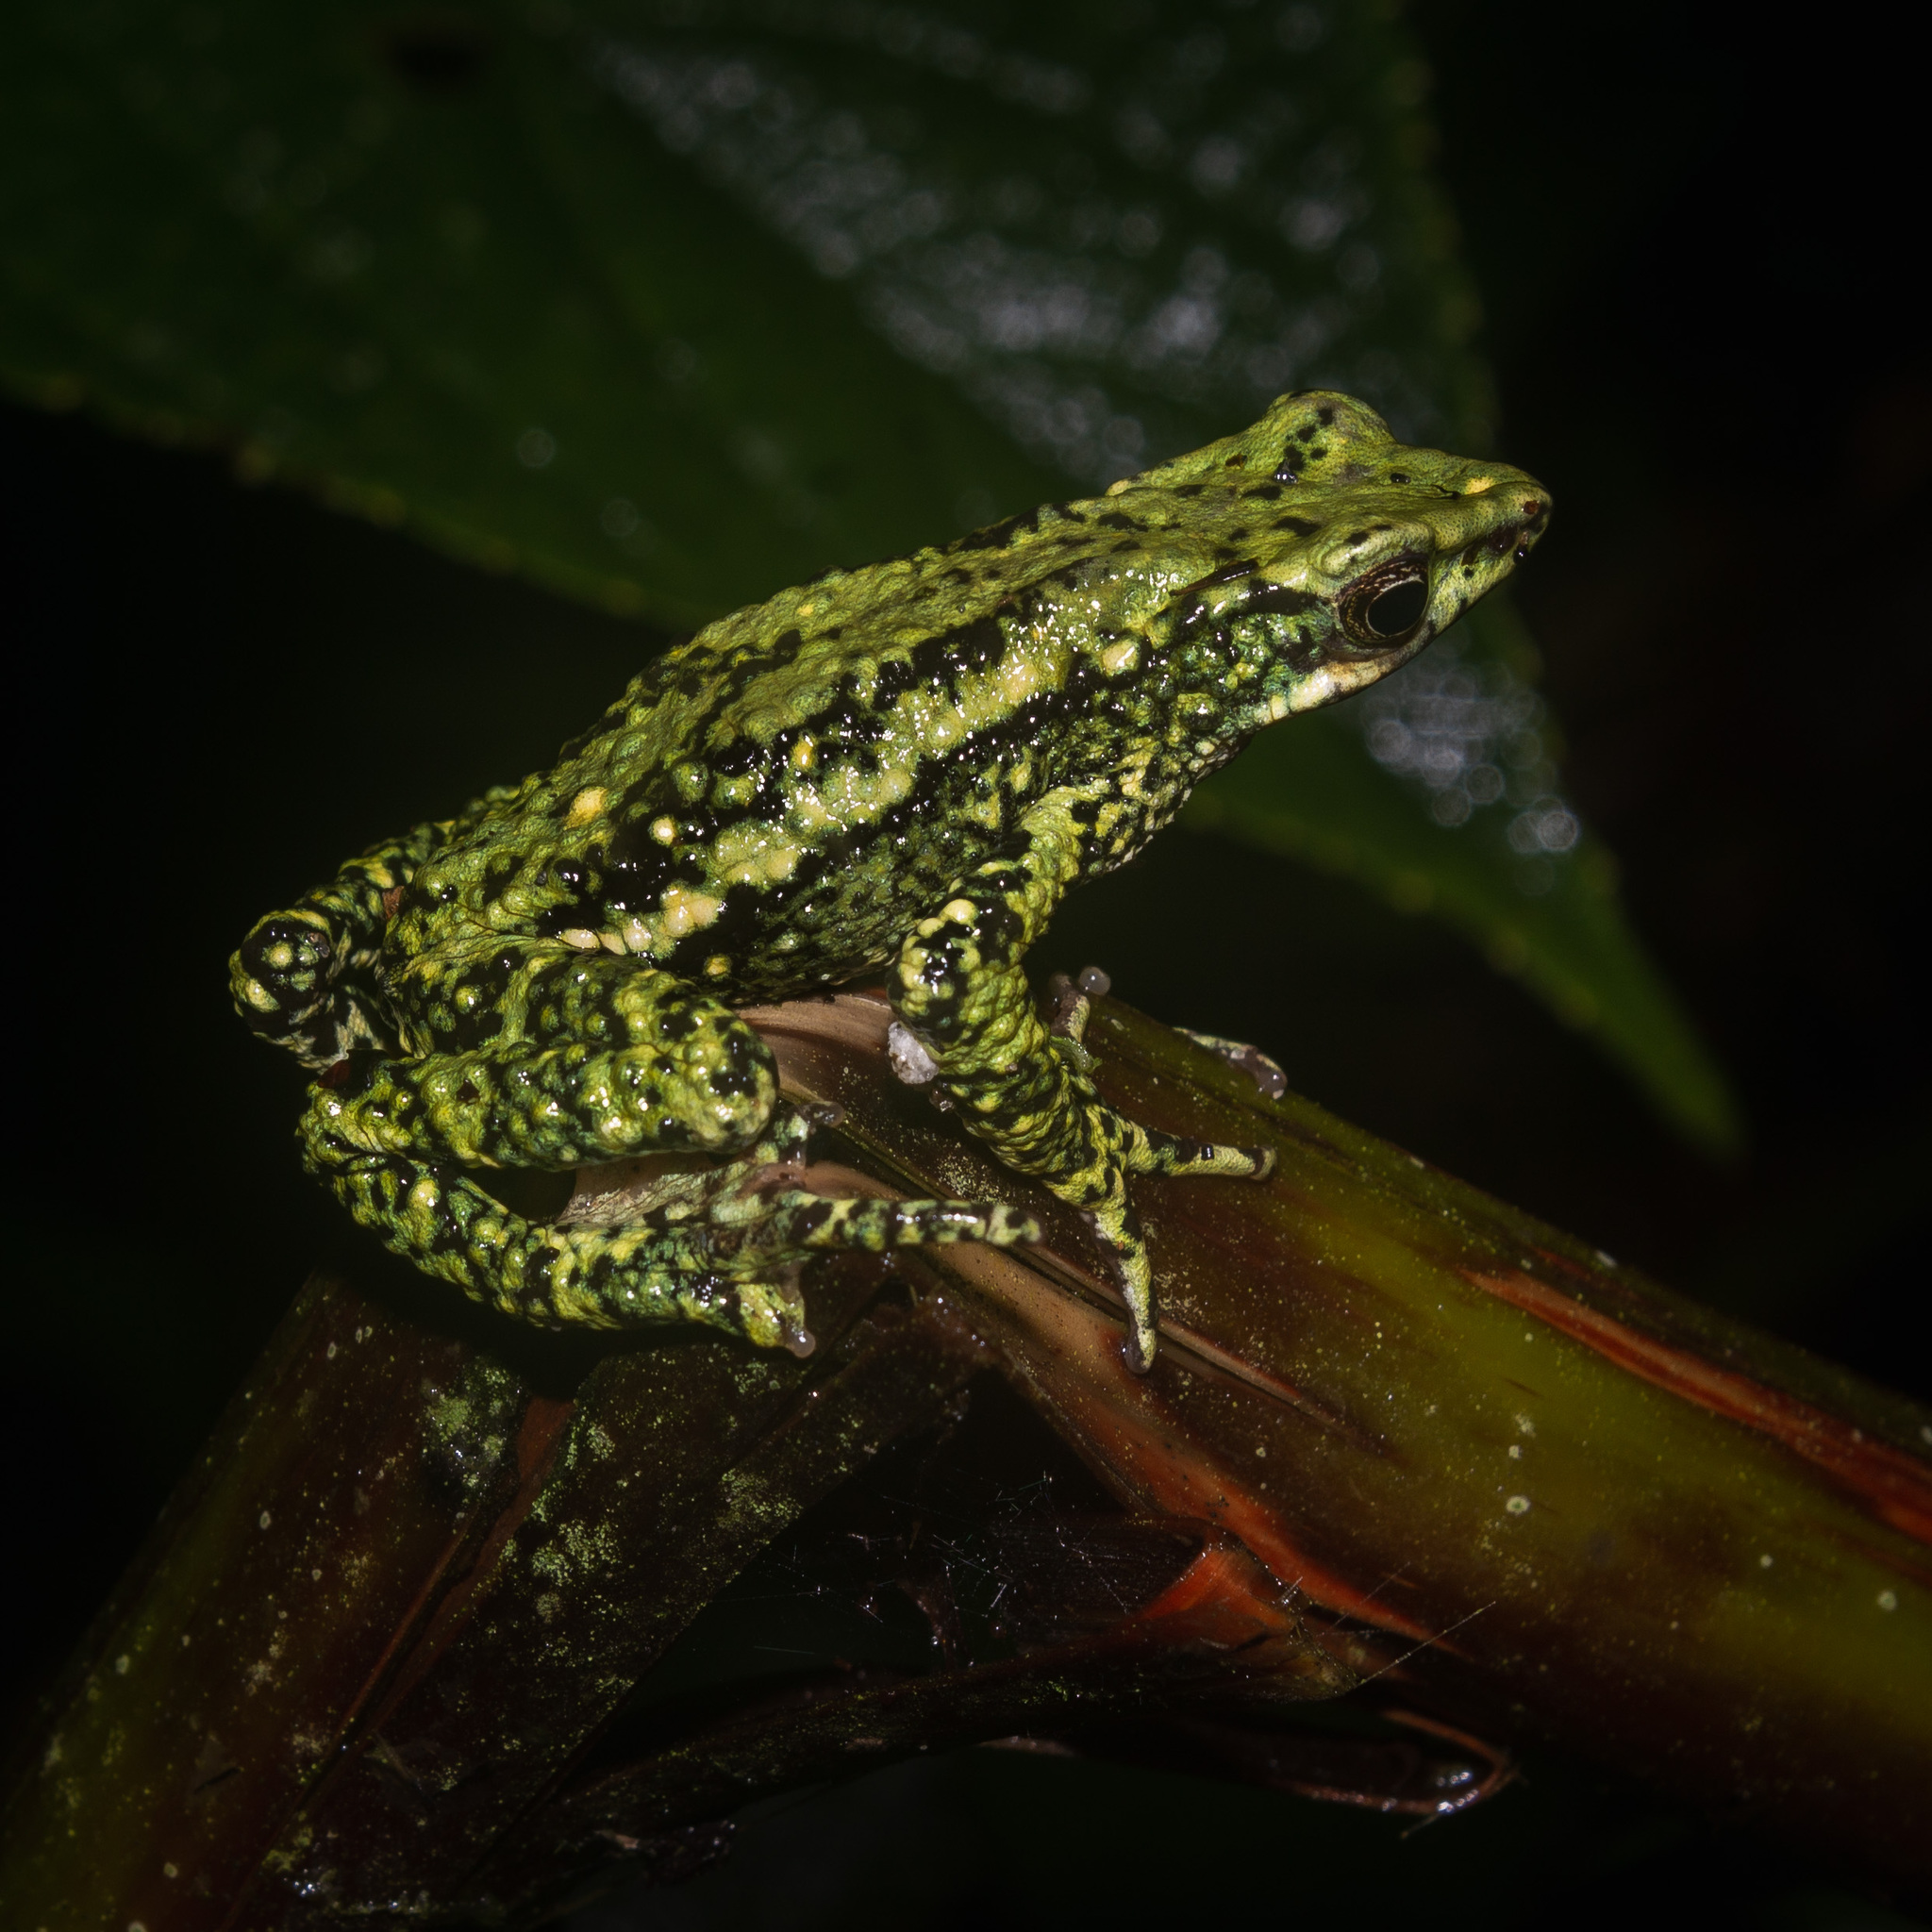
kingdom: Animalia
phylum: Chordata
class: Amphibia
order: Anura
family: Bufonidae
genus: Atelopus
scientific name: Atelopus laetissimus
